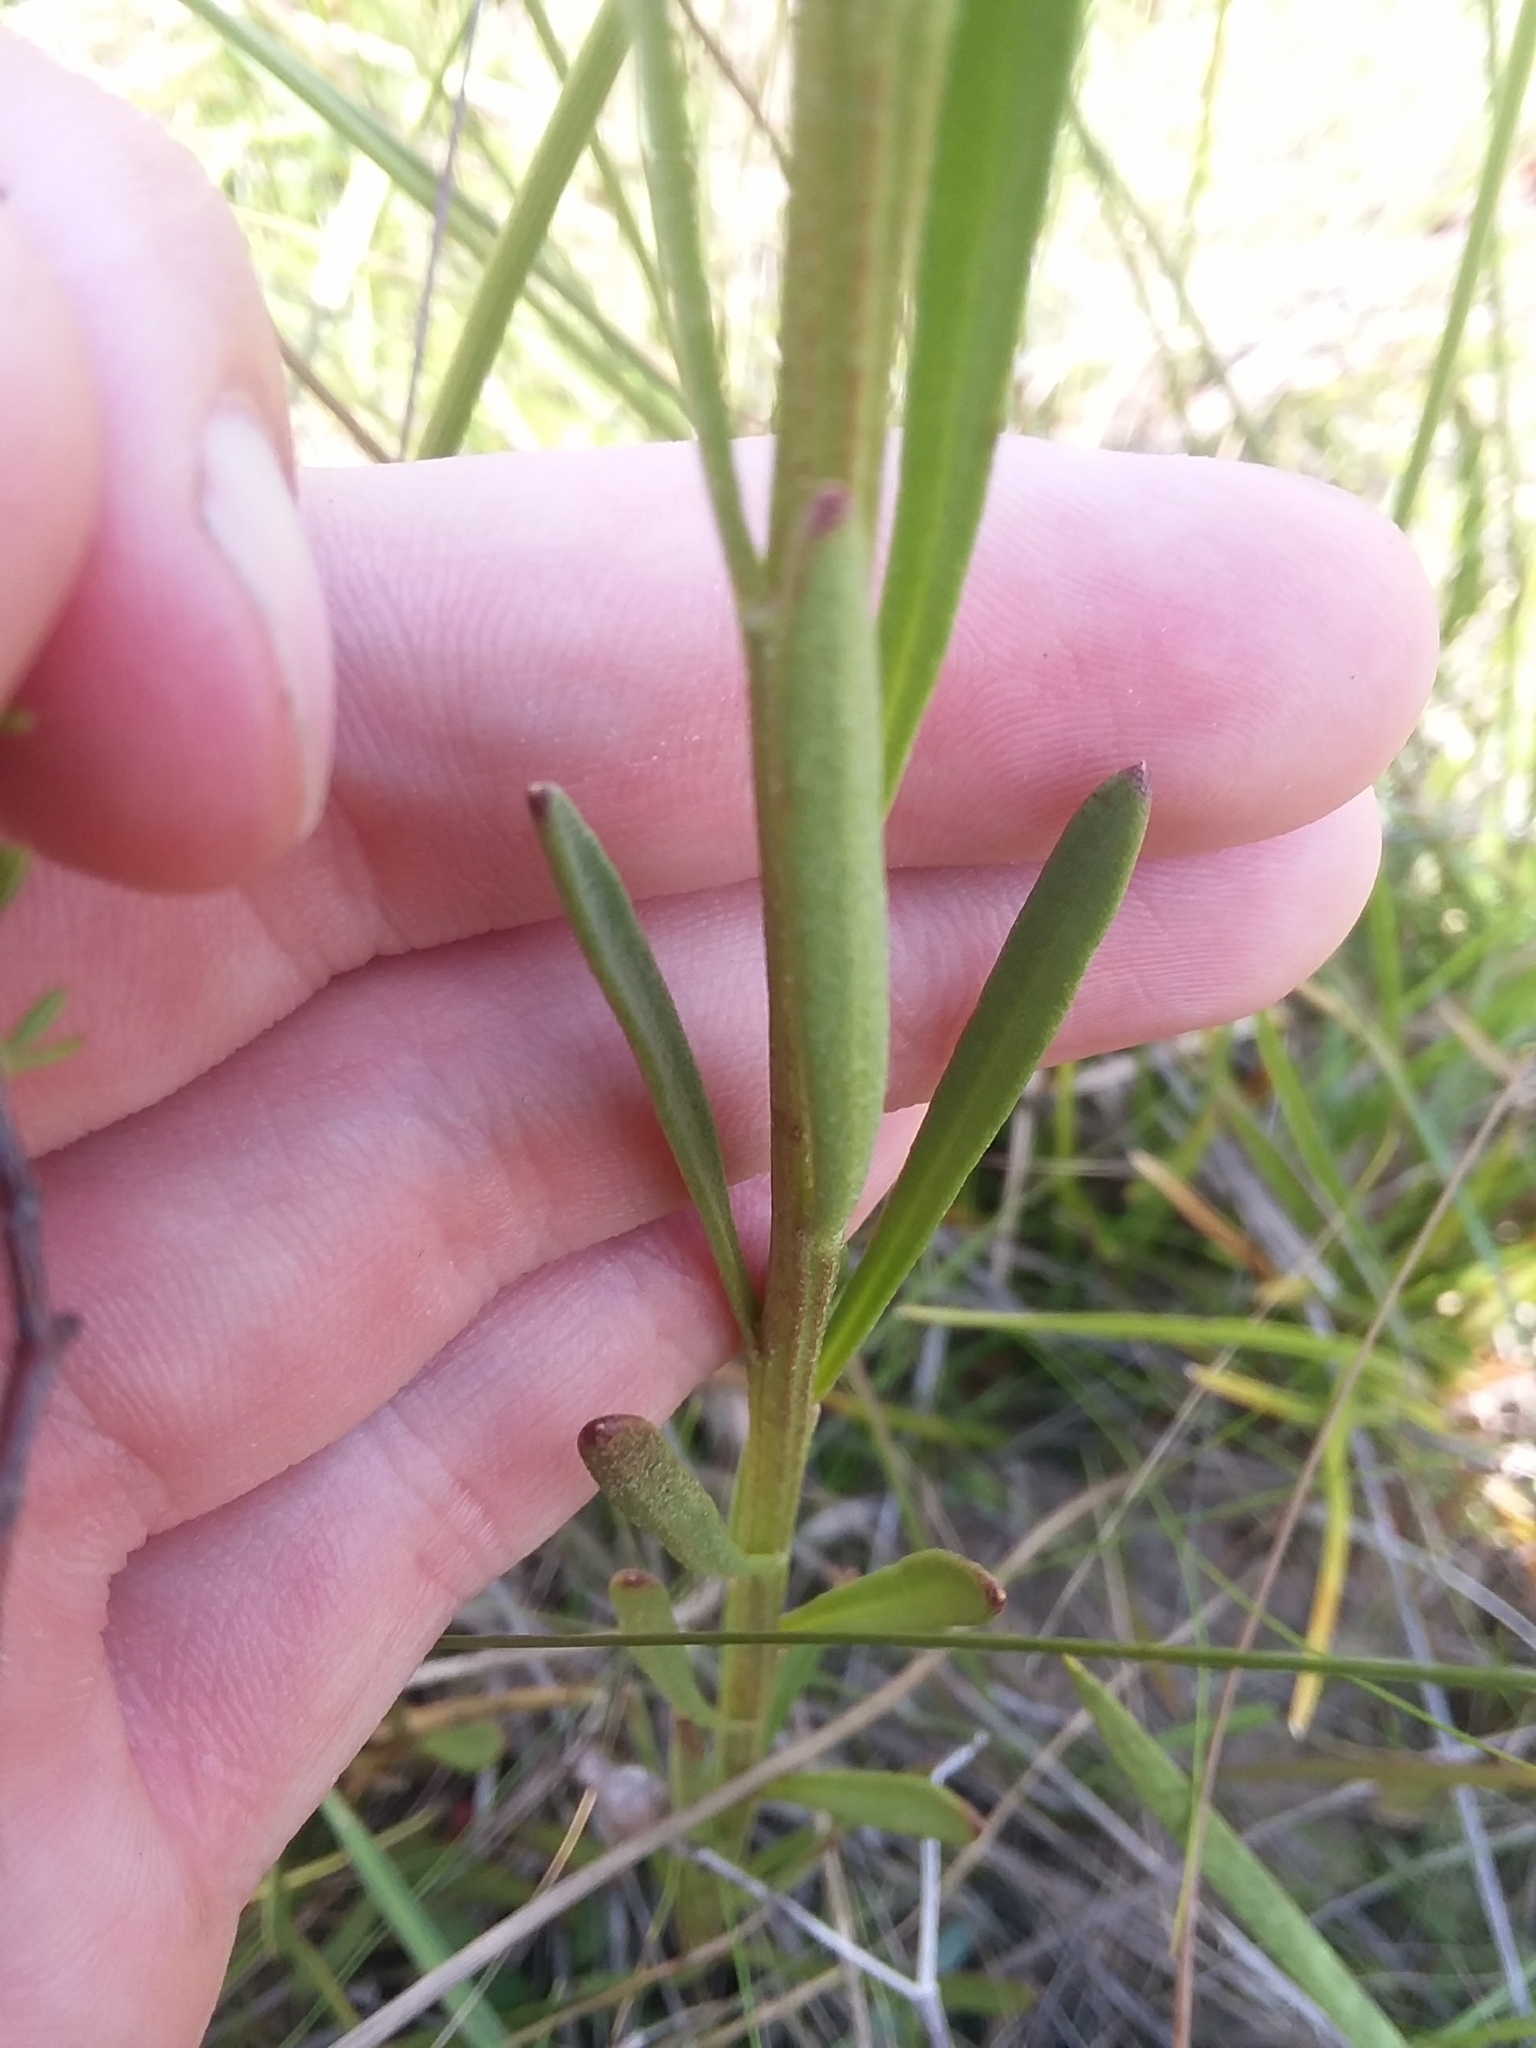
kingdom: Plantae
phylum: Tracheophyta
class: Magnoliopsida
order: Asterales
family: Asteraceae
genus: Balduina
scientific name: Balduina uniflora
